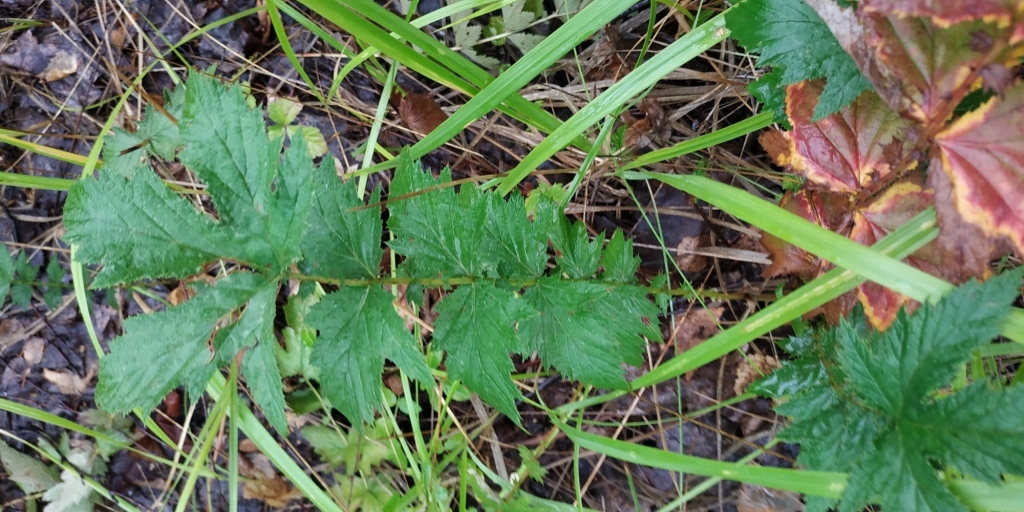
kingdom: Plantae
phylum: Tracheophyta
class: Magnoliopsida
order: Rosales
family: Rosaceae
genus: Filipendula
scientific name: Filipendula ulmaria
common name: Meadowsweet
